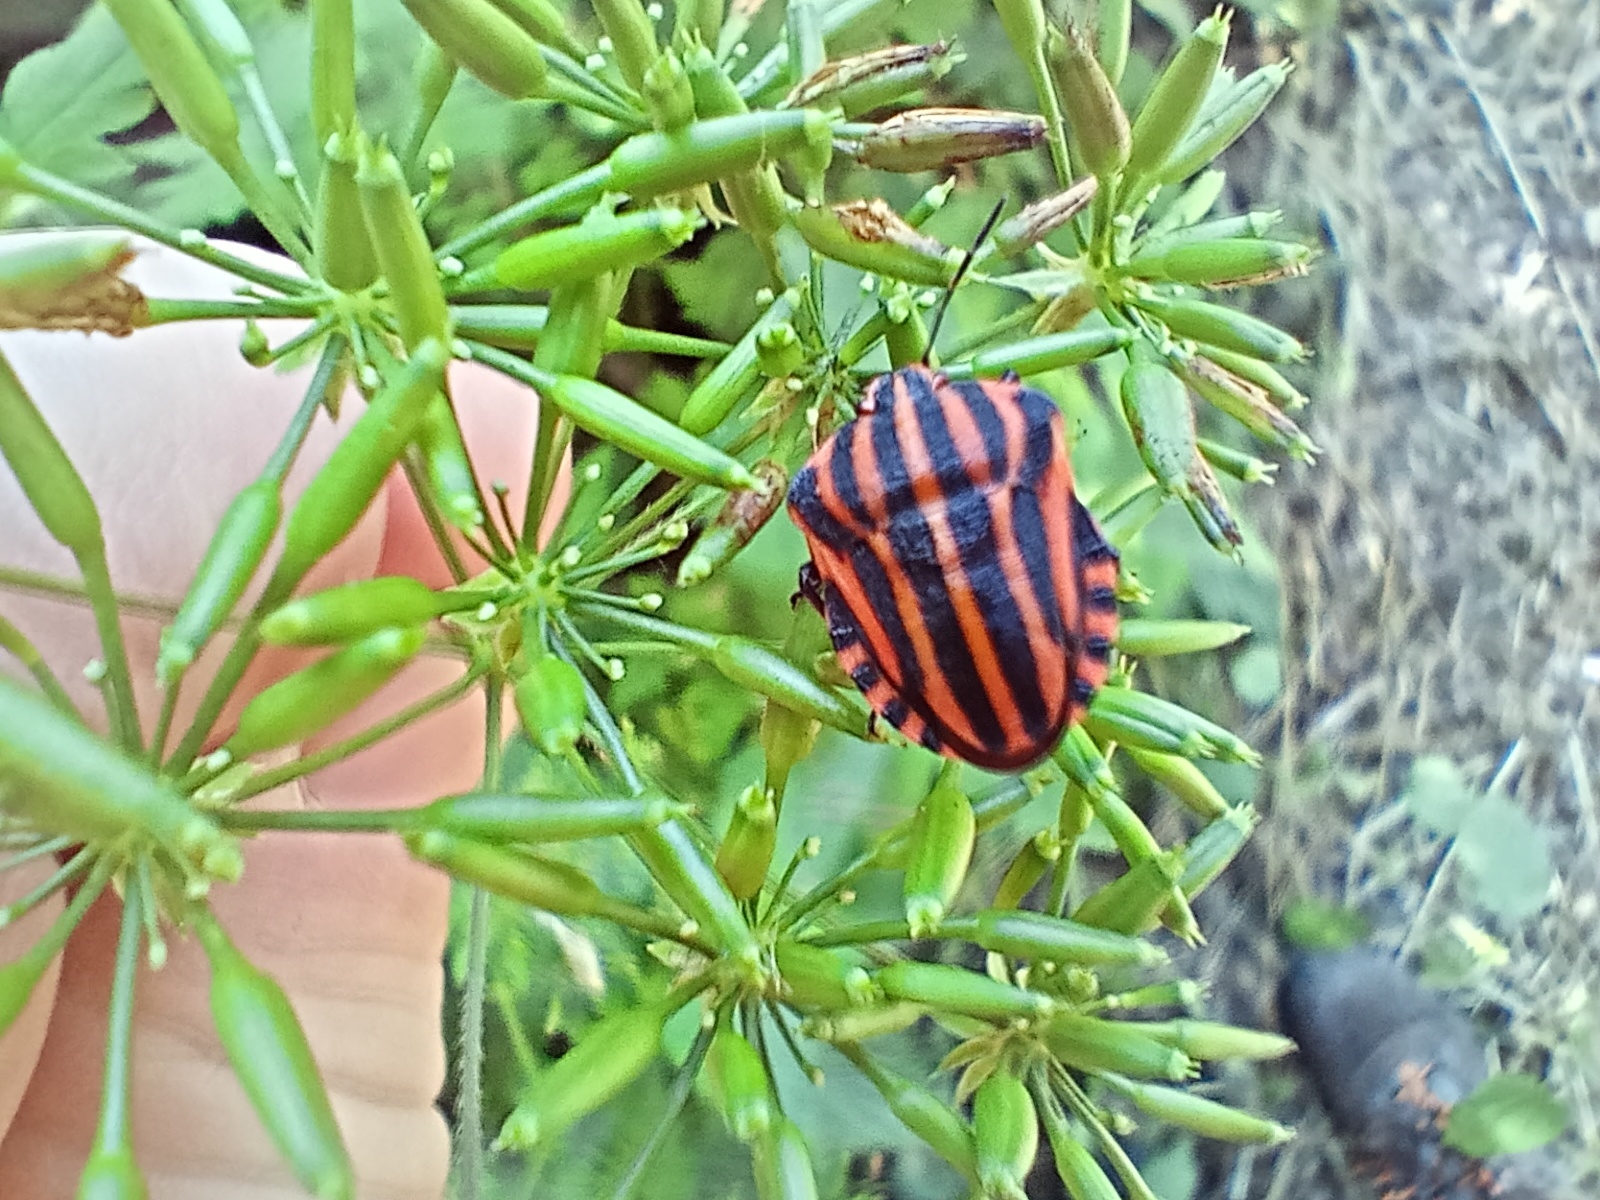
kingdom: Animalia
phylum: Arthropoda
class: Insecta
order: Hemiptera
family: Pentatomidae
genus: Graphosoma
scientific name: Graphosoma italicum
